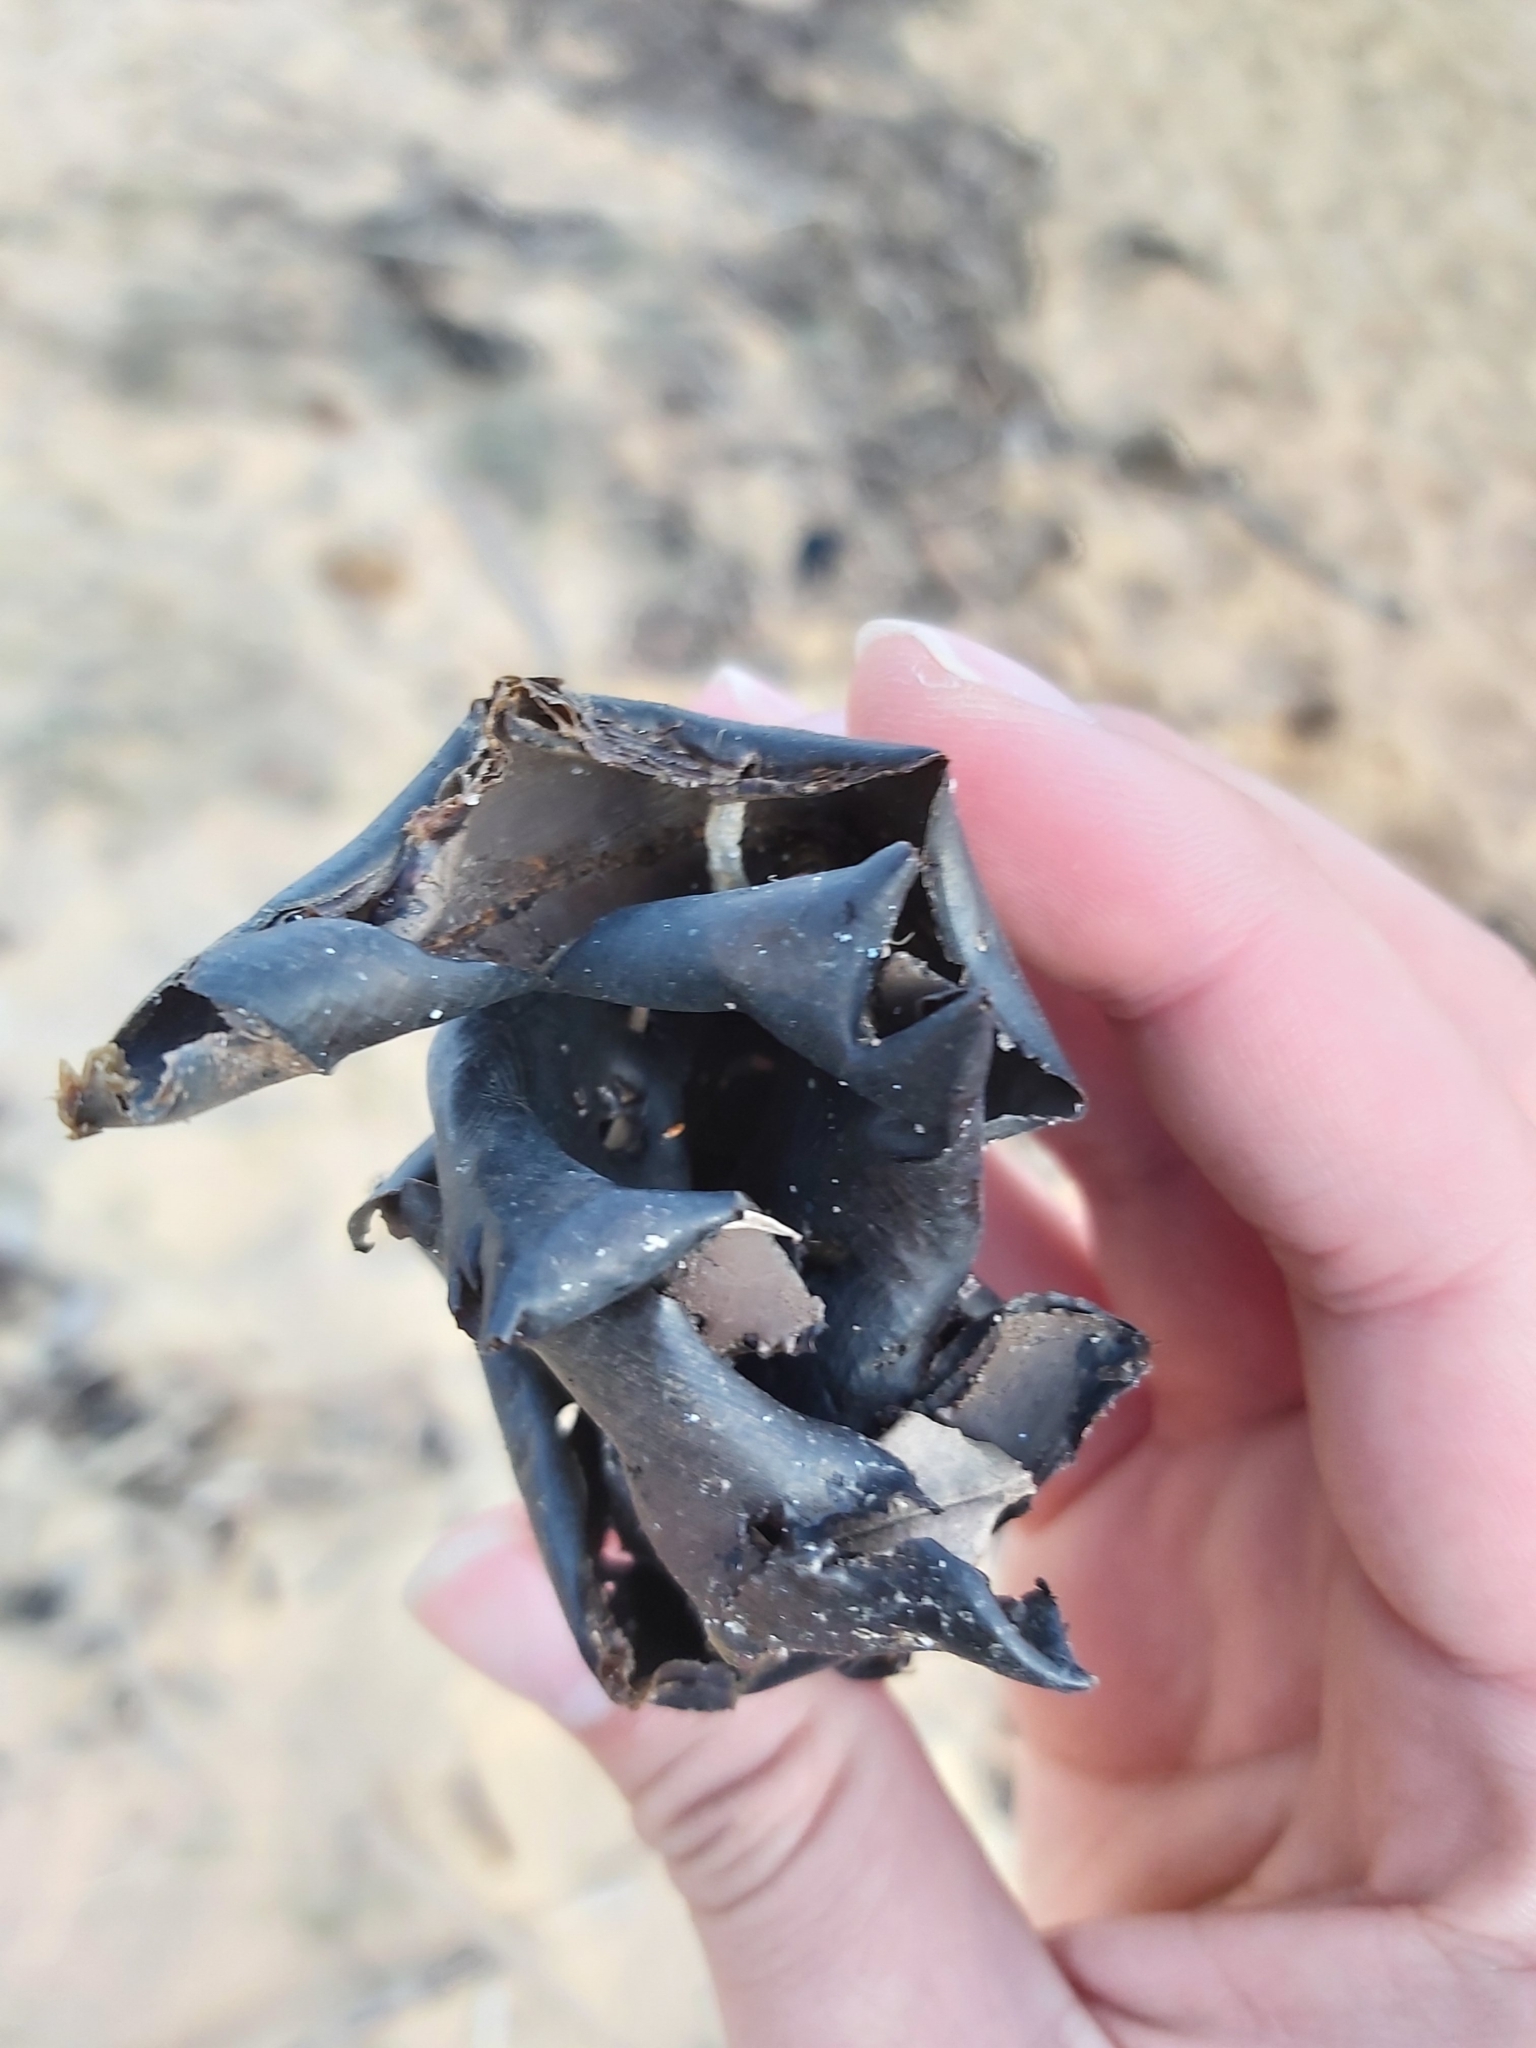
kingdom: Animalia
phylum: Chordata
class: Elasmobranchii
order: Heterodontiformes
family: Heterodontidae
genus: Heterodontus
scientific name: Heterodontus portusjacksoni
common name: Port jackson shark
